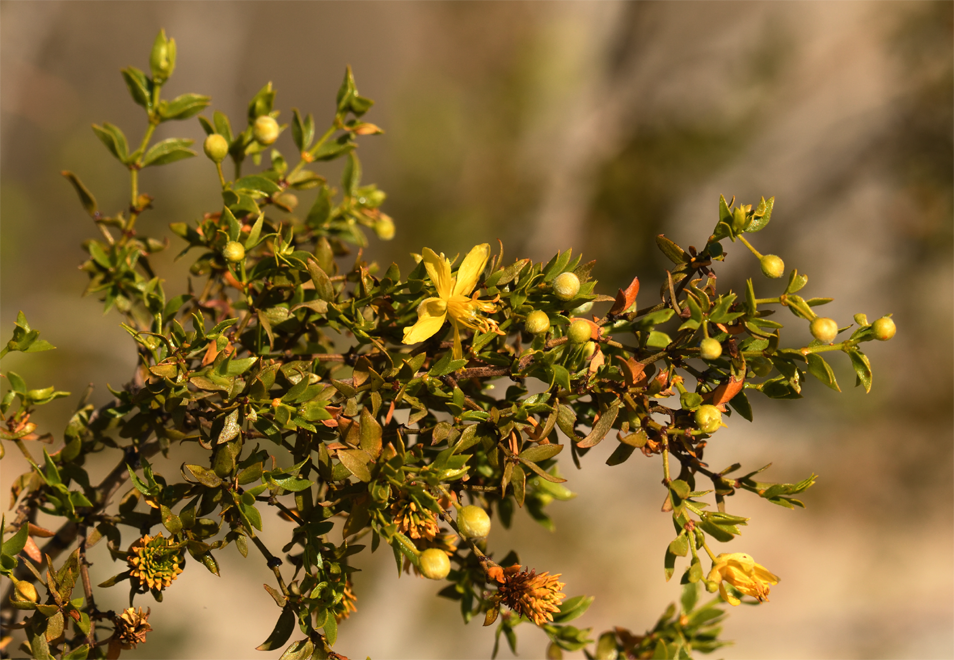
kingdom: Plantae
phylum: Tracheophyta
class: Magnoliopsida
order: Zygophyllales
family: Zygophyllaceae
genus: Larrea
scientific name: Larrea tridentata
